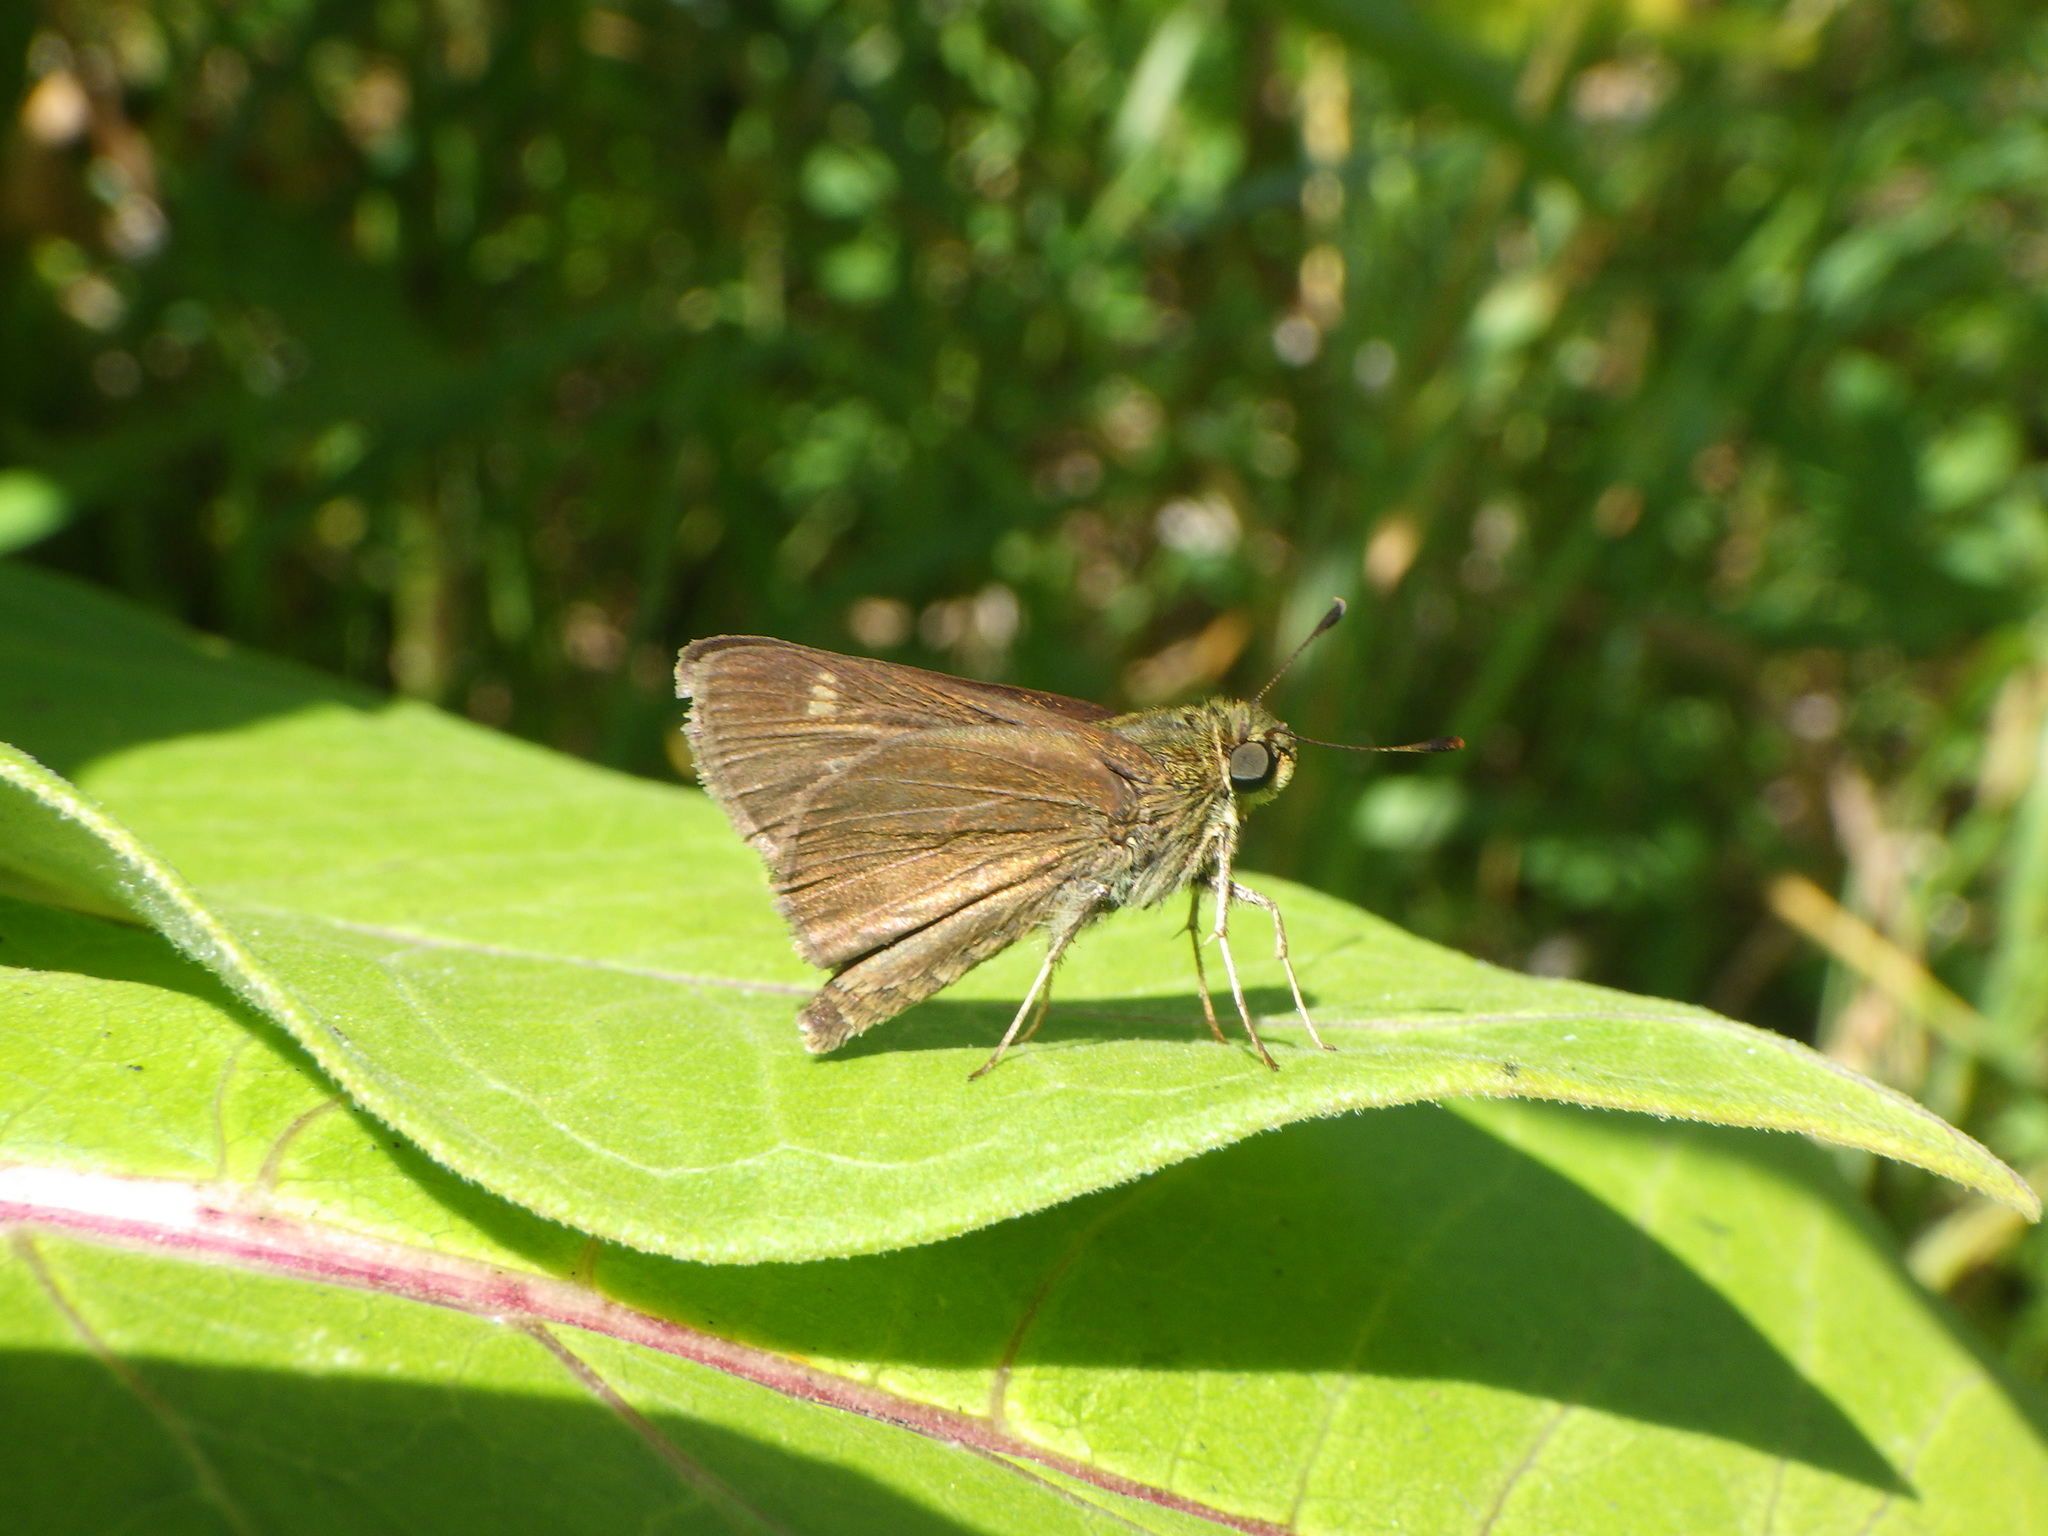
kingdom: Animalia
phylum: Arthropoda
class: Insecta
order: Lepidoptera
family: Hesperiidae
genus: Vernia
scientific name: Vernia verna
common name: Little glassywing
